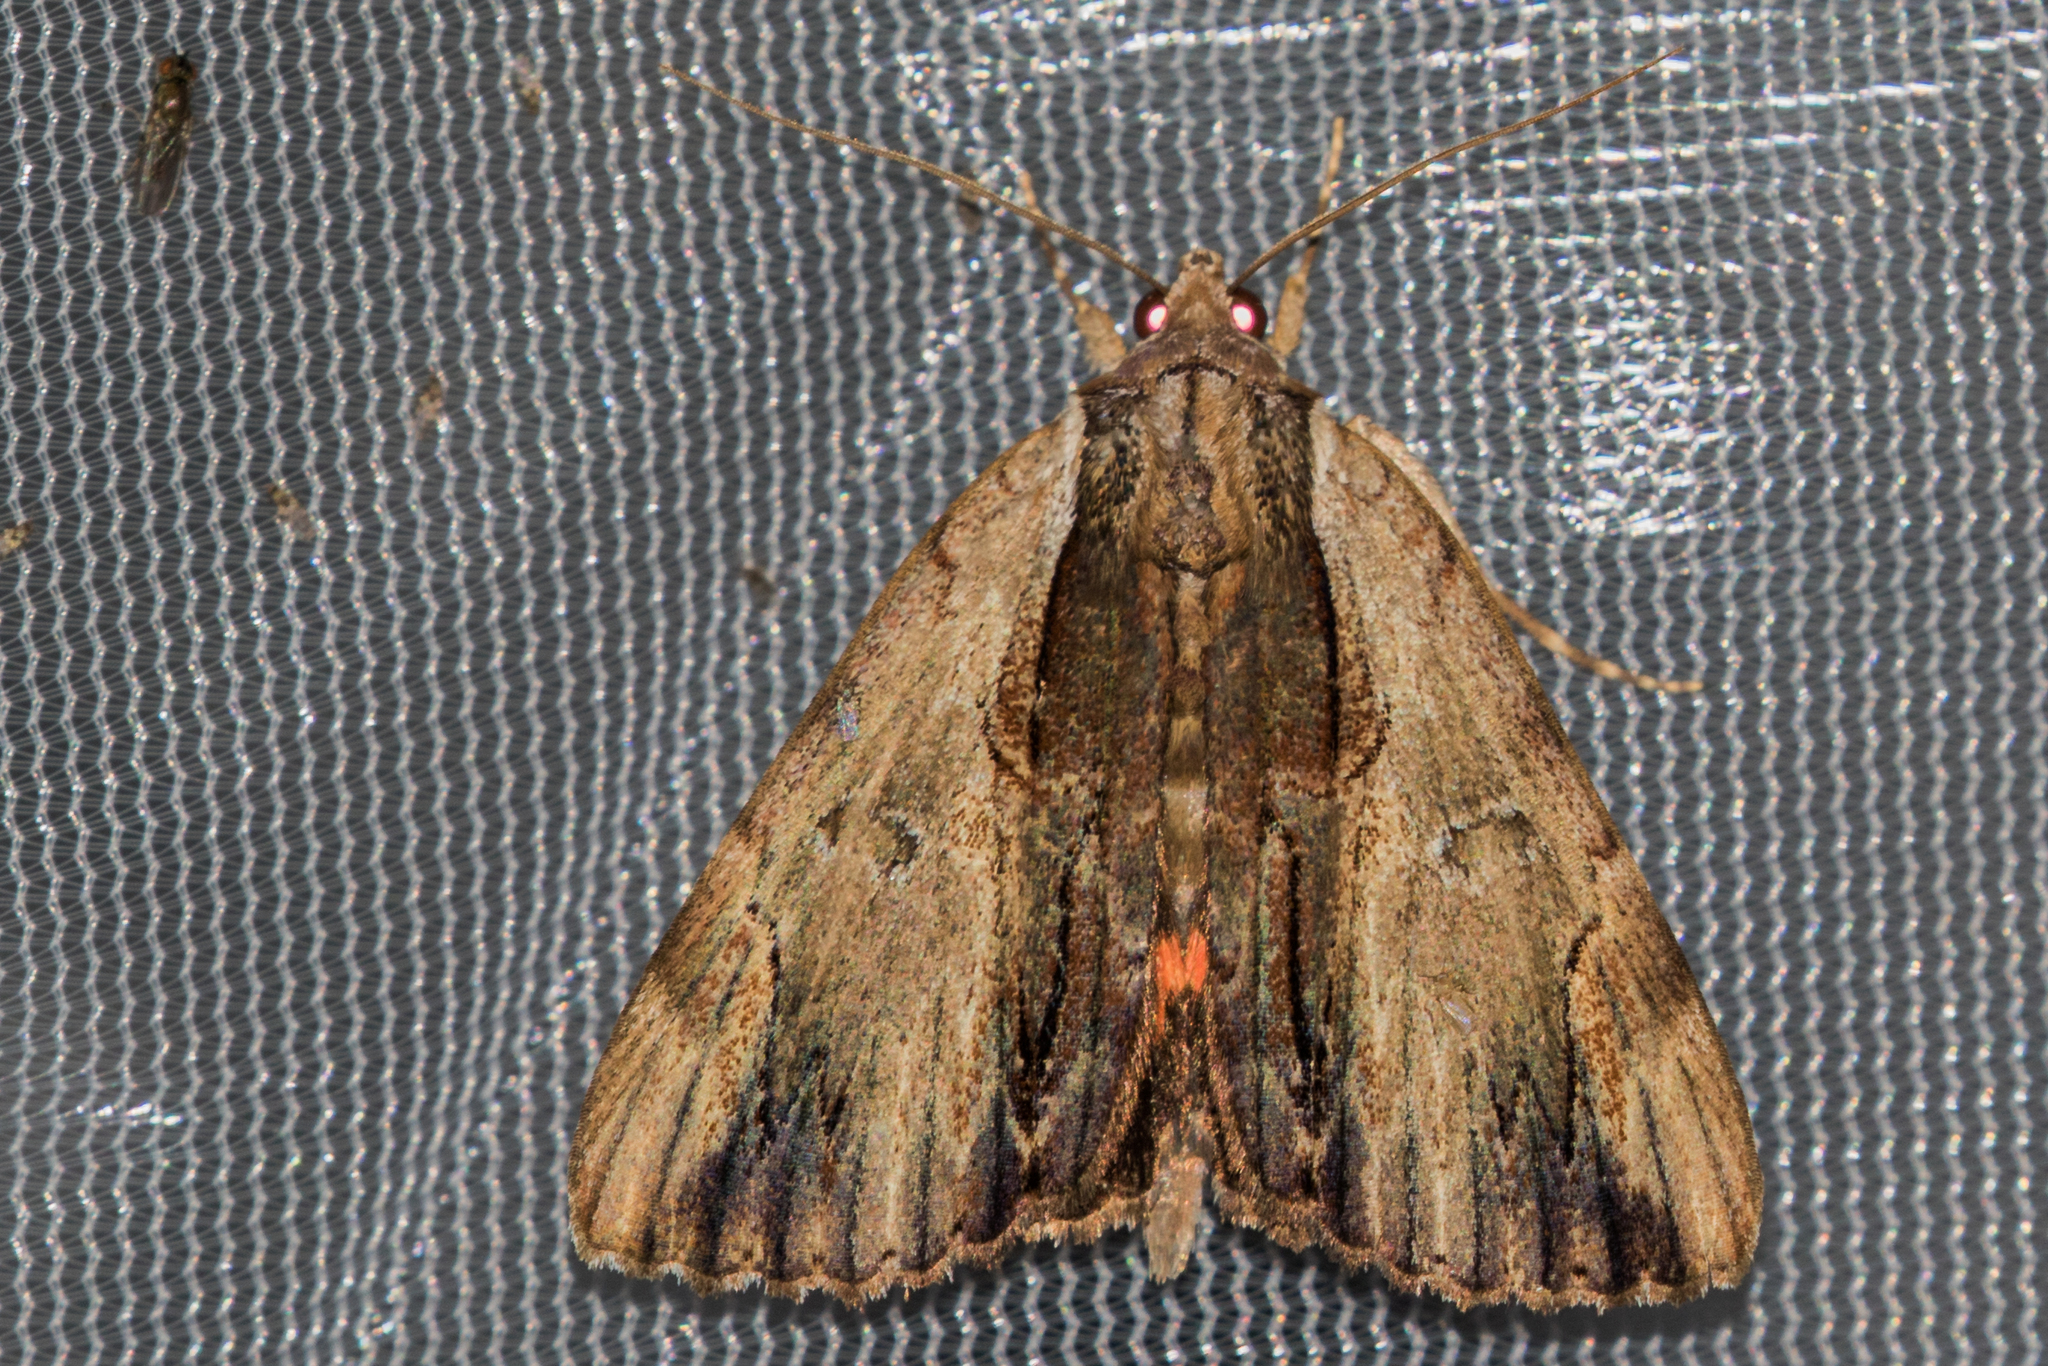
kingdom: Animalia
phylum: Arthropoda
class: Insecta
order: Lepidoptera
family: Erebidae
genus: Catocala
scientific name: Catocala ultronia
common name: Ultronia underwing
